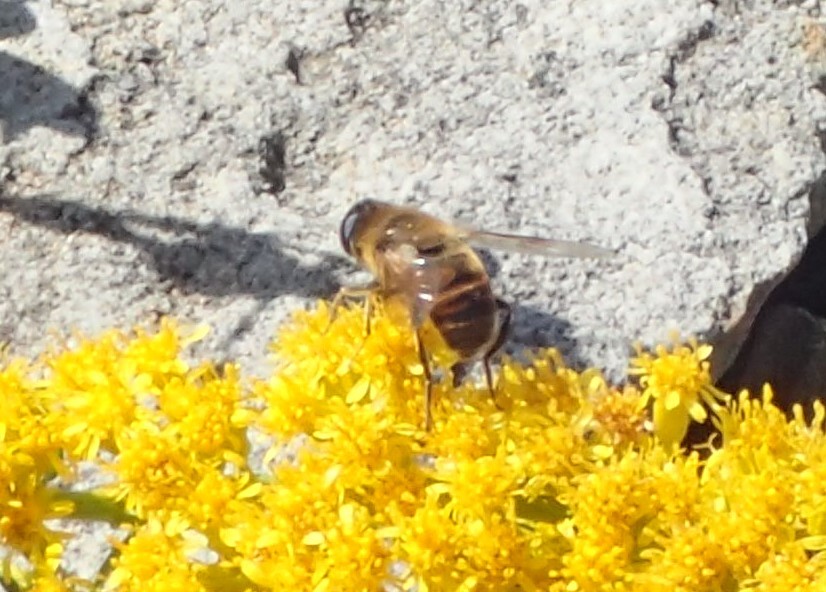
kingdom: Animalia
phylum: Arthropoda
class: Insecta
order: Diptera
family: Syrphidae
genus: Eristalis
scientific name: Eristalis tenax
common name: Drone fly
